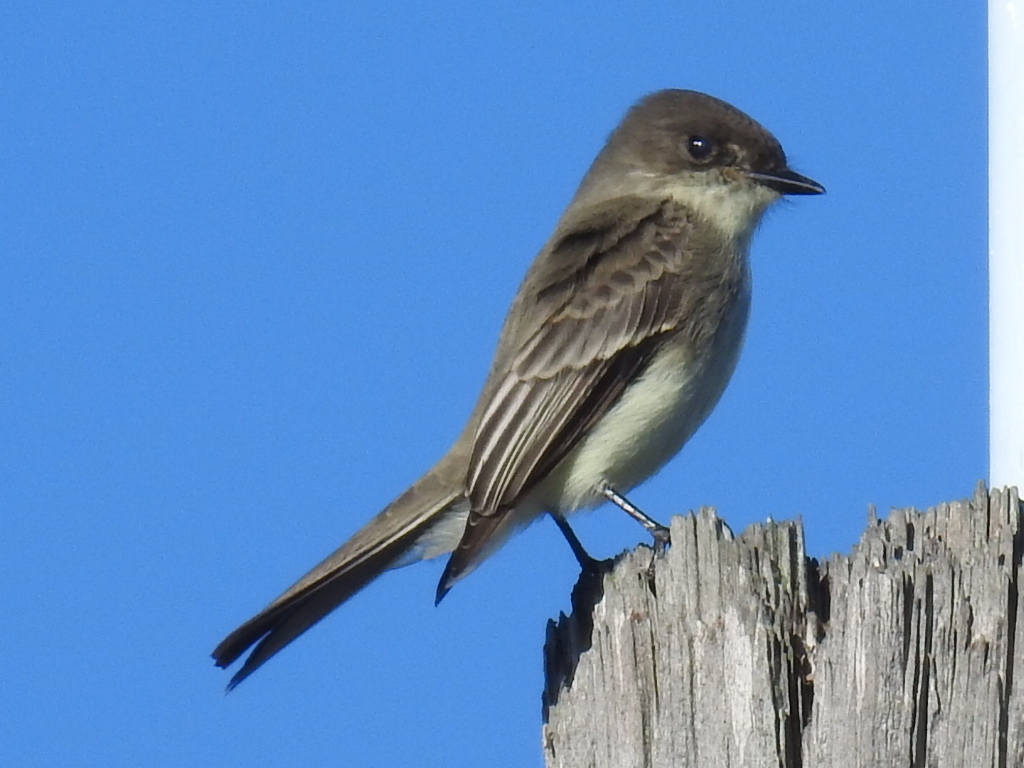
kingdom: Animalia
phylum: Chordata
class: Aves
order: Passeriformes
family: Tyrannidae
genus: Sayornis
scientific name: Sayornis phoebe
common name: Eastern phoebe
